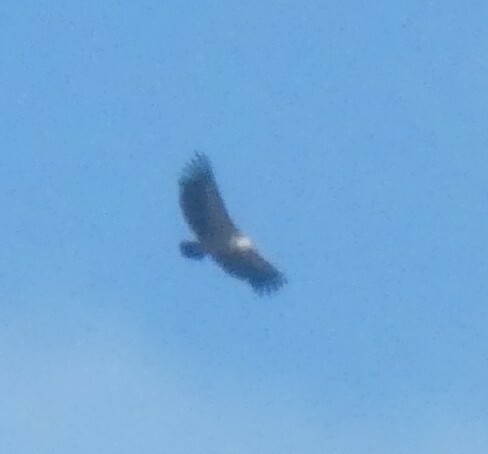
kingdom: Animalia
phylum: Chordata
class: Aves
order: Accipitriformes
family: Accipitridae
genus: Gyps
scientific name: Gyps fulvus
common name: Griffon vulture
